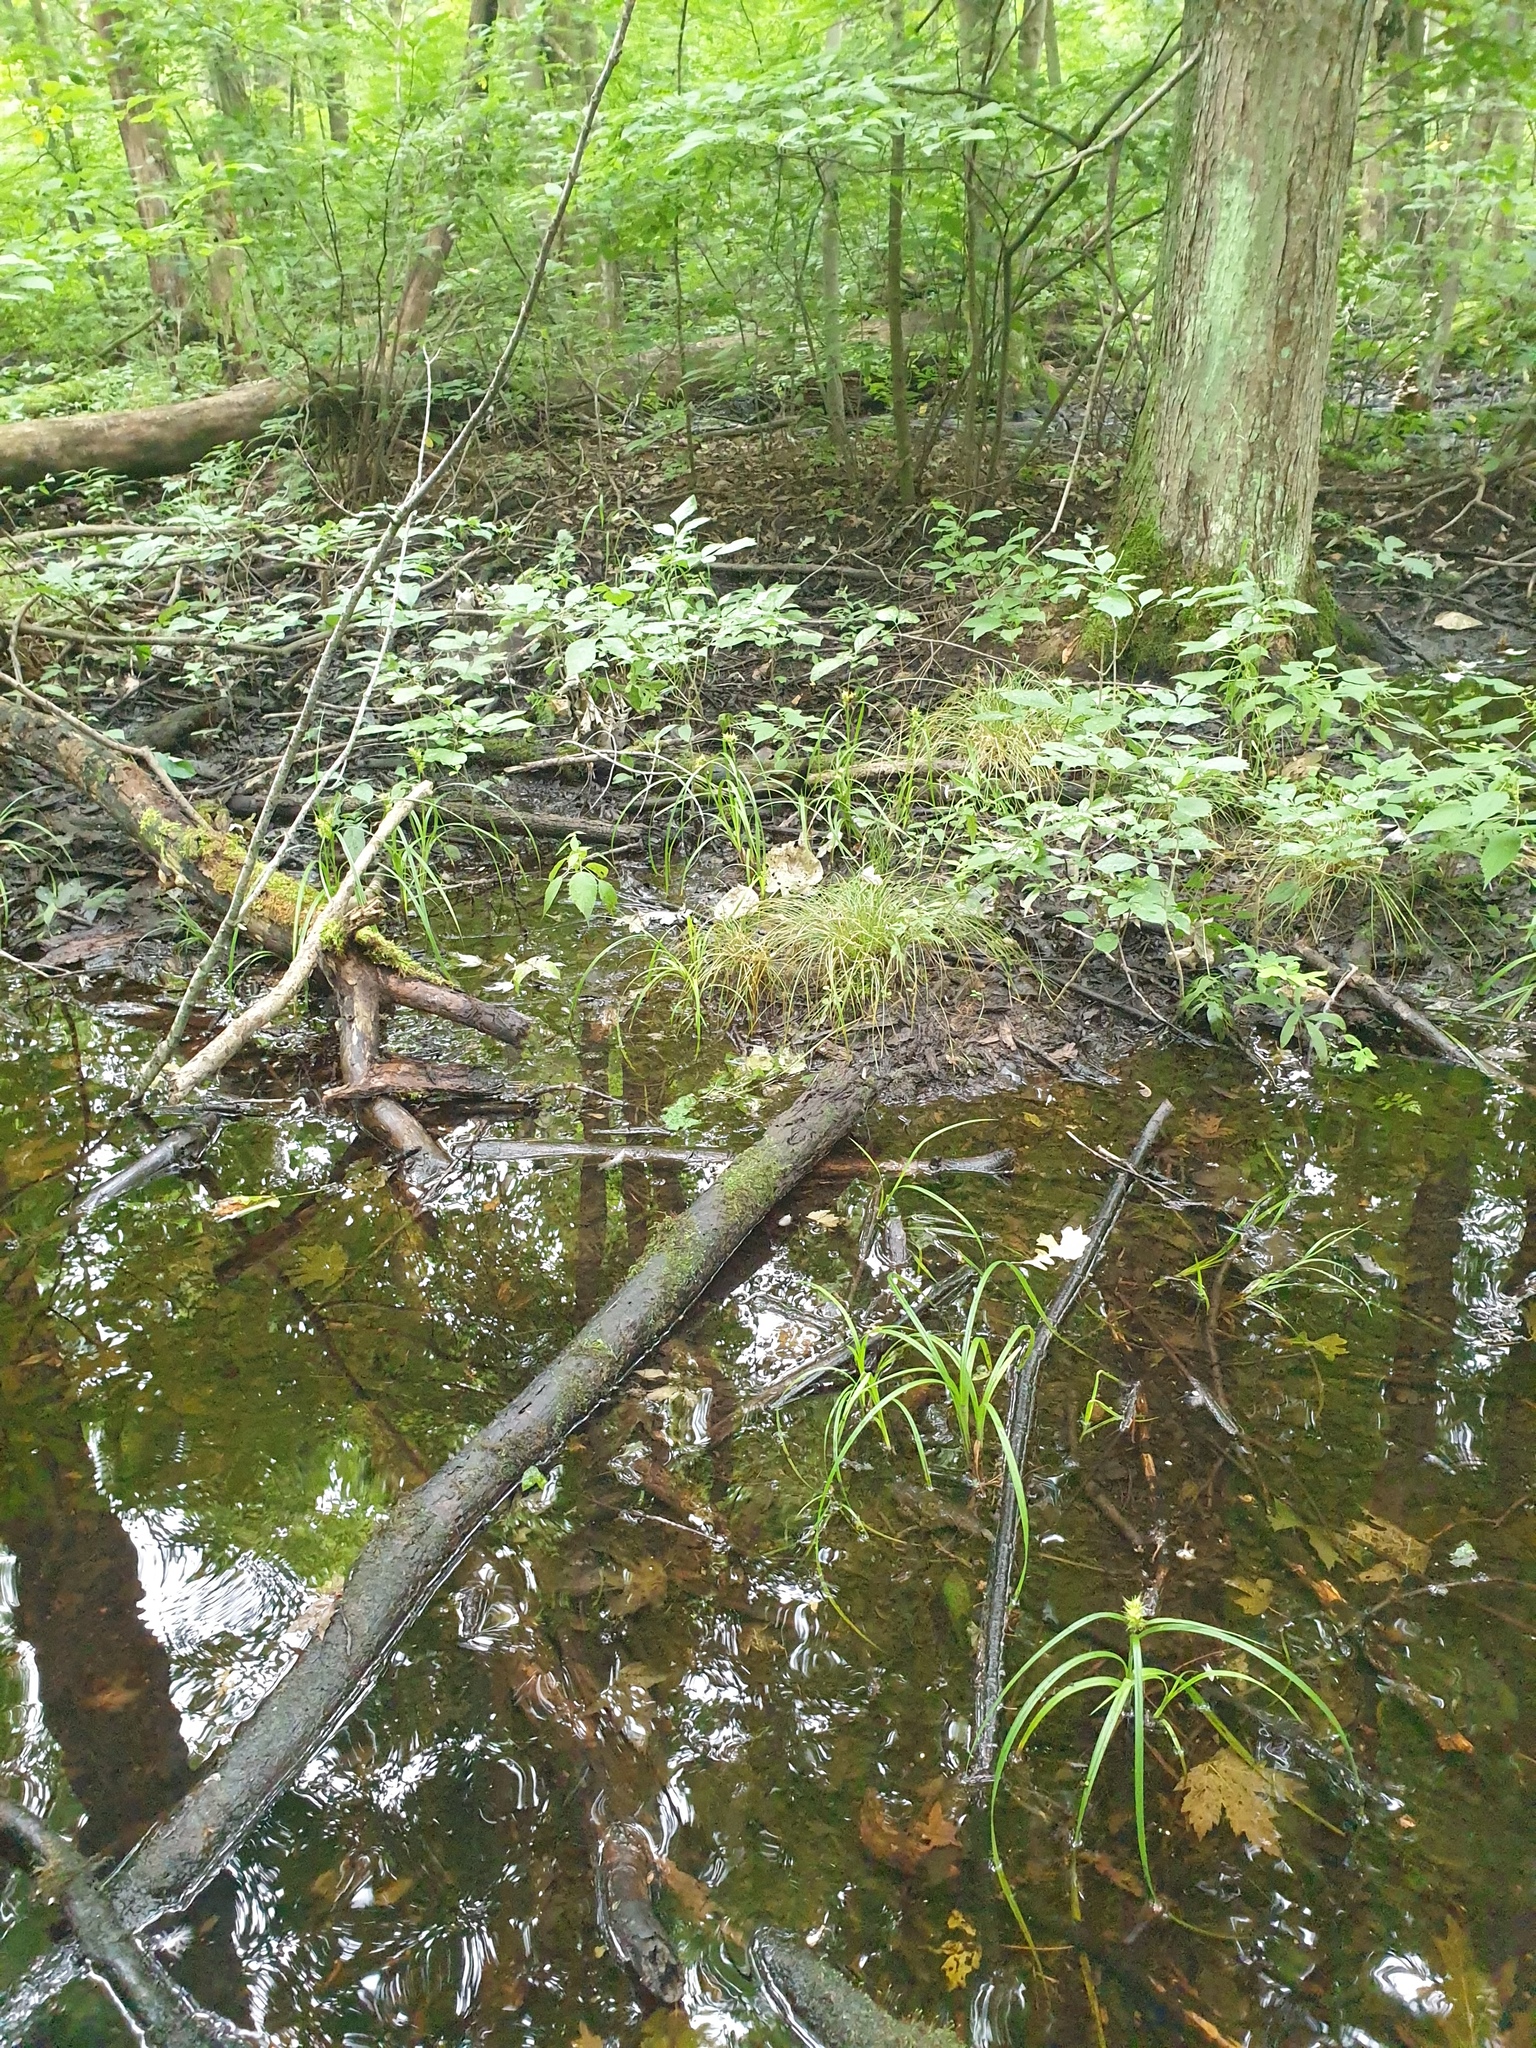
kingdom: Plantae
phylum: Tracheophyta
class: Liliopsida
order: Poales
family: Cyperaceae
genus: Carex
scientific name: Carex lupuliformis
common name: False hop sedge
